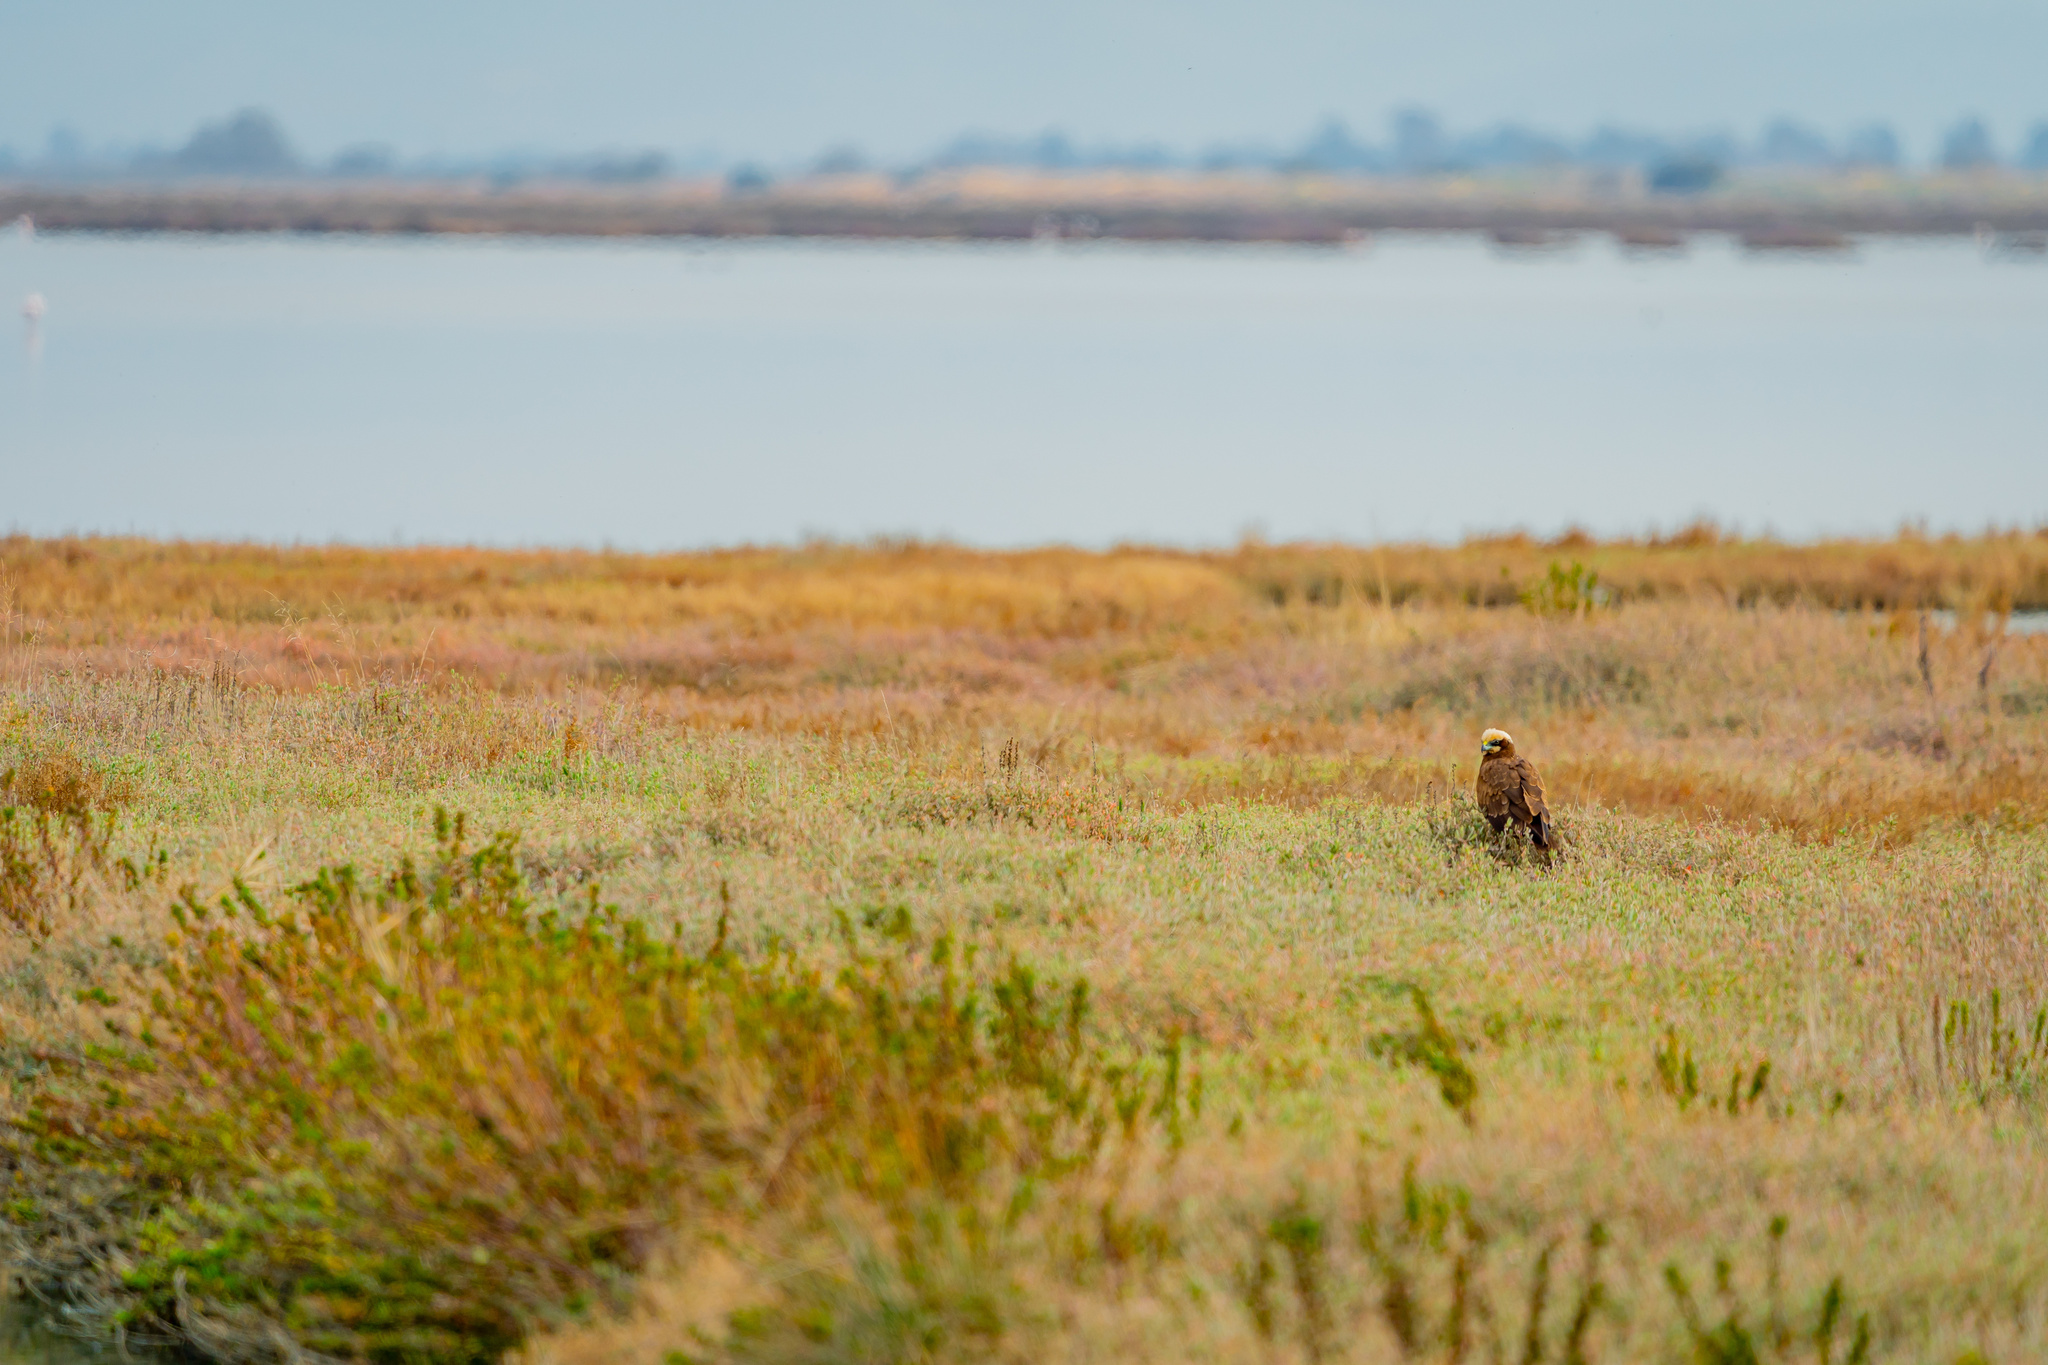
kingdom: Animalia
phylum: Chordata
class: Aves
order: Accipitriformes
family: Accipitridae
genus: Circus
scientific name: Circus aeruginosus
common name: Western marsh harrier
